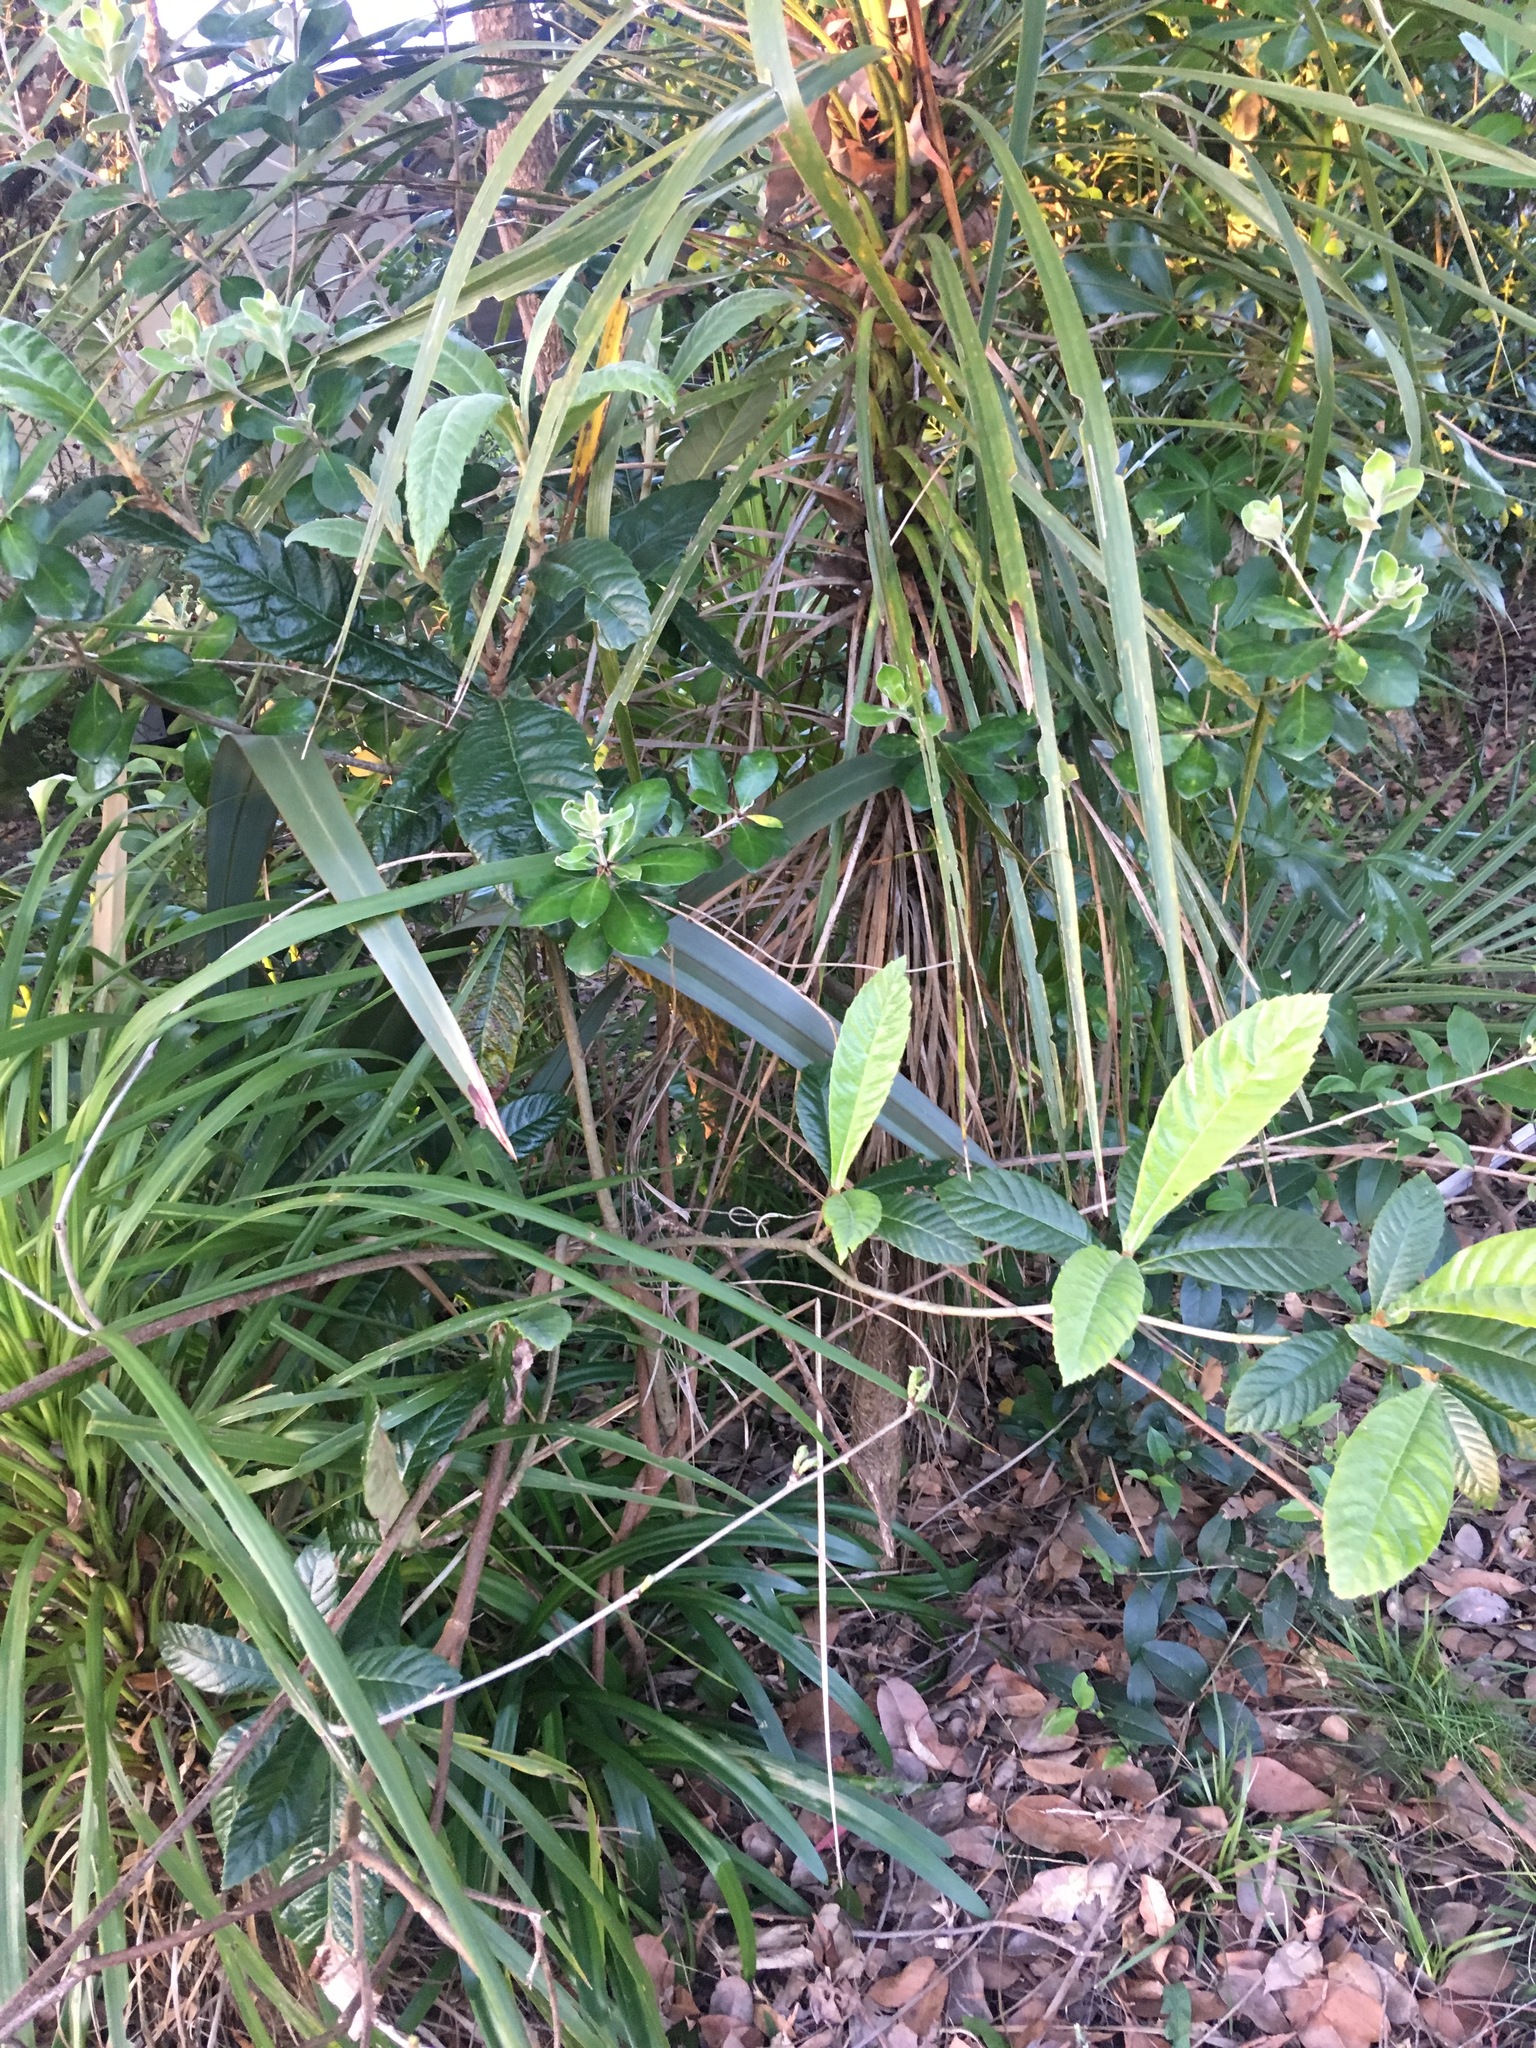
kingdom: Plantae
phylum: Tracheophyta
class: Magnoliopsida
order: Rosales
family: Rosaceae
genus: Rhaphiolepis
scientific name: Rhaphiolepis bibas
